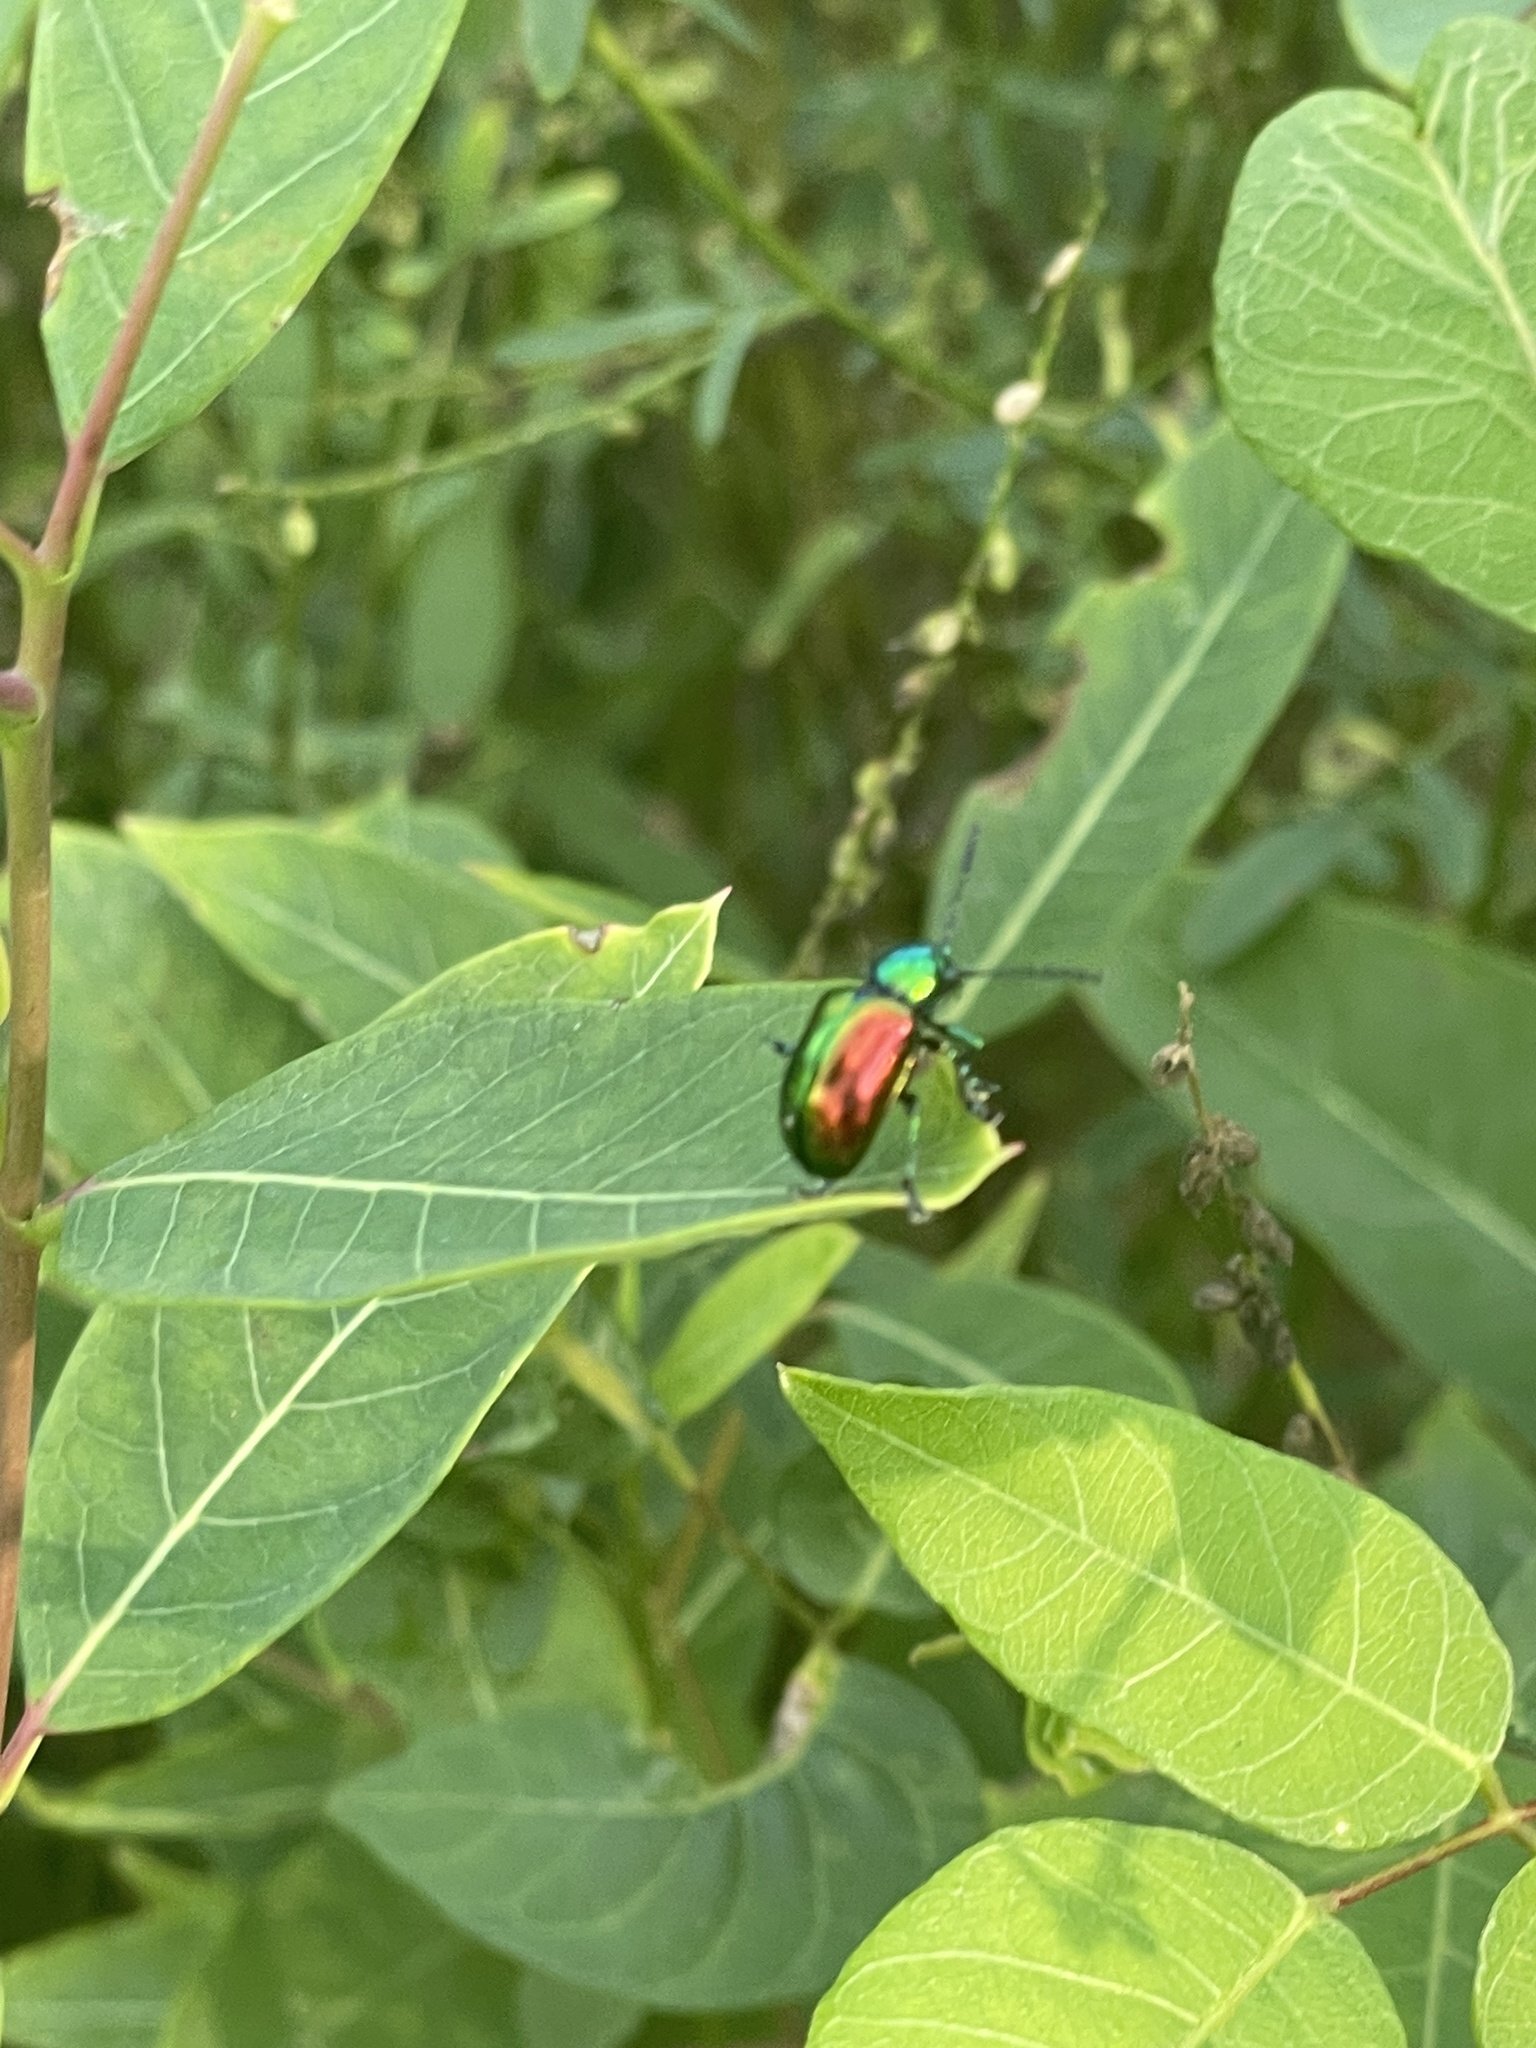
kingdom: Animalia
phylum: Arthropoda
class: Insecta
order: Coleoptera
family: Chrysomelidae
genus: Chrysochus
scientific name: Chrysochus auratus
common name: Dogbane leaf beetle
